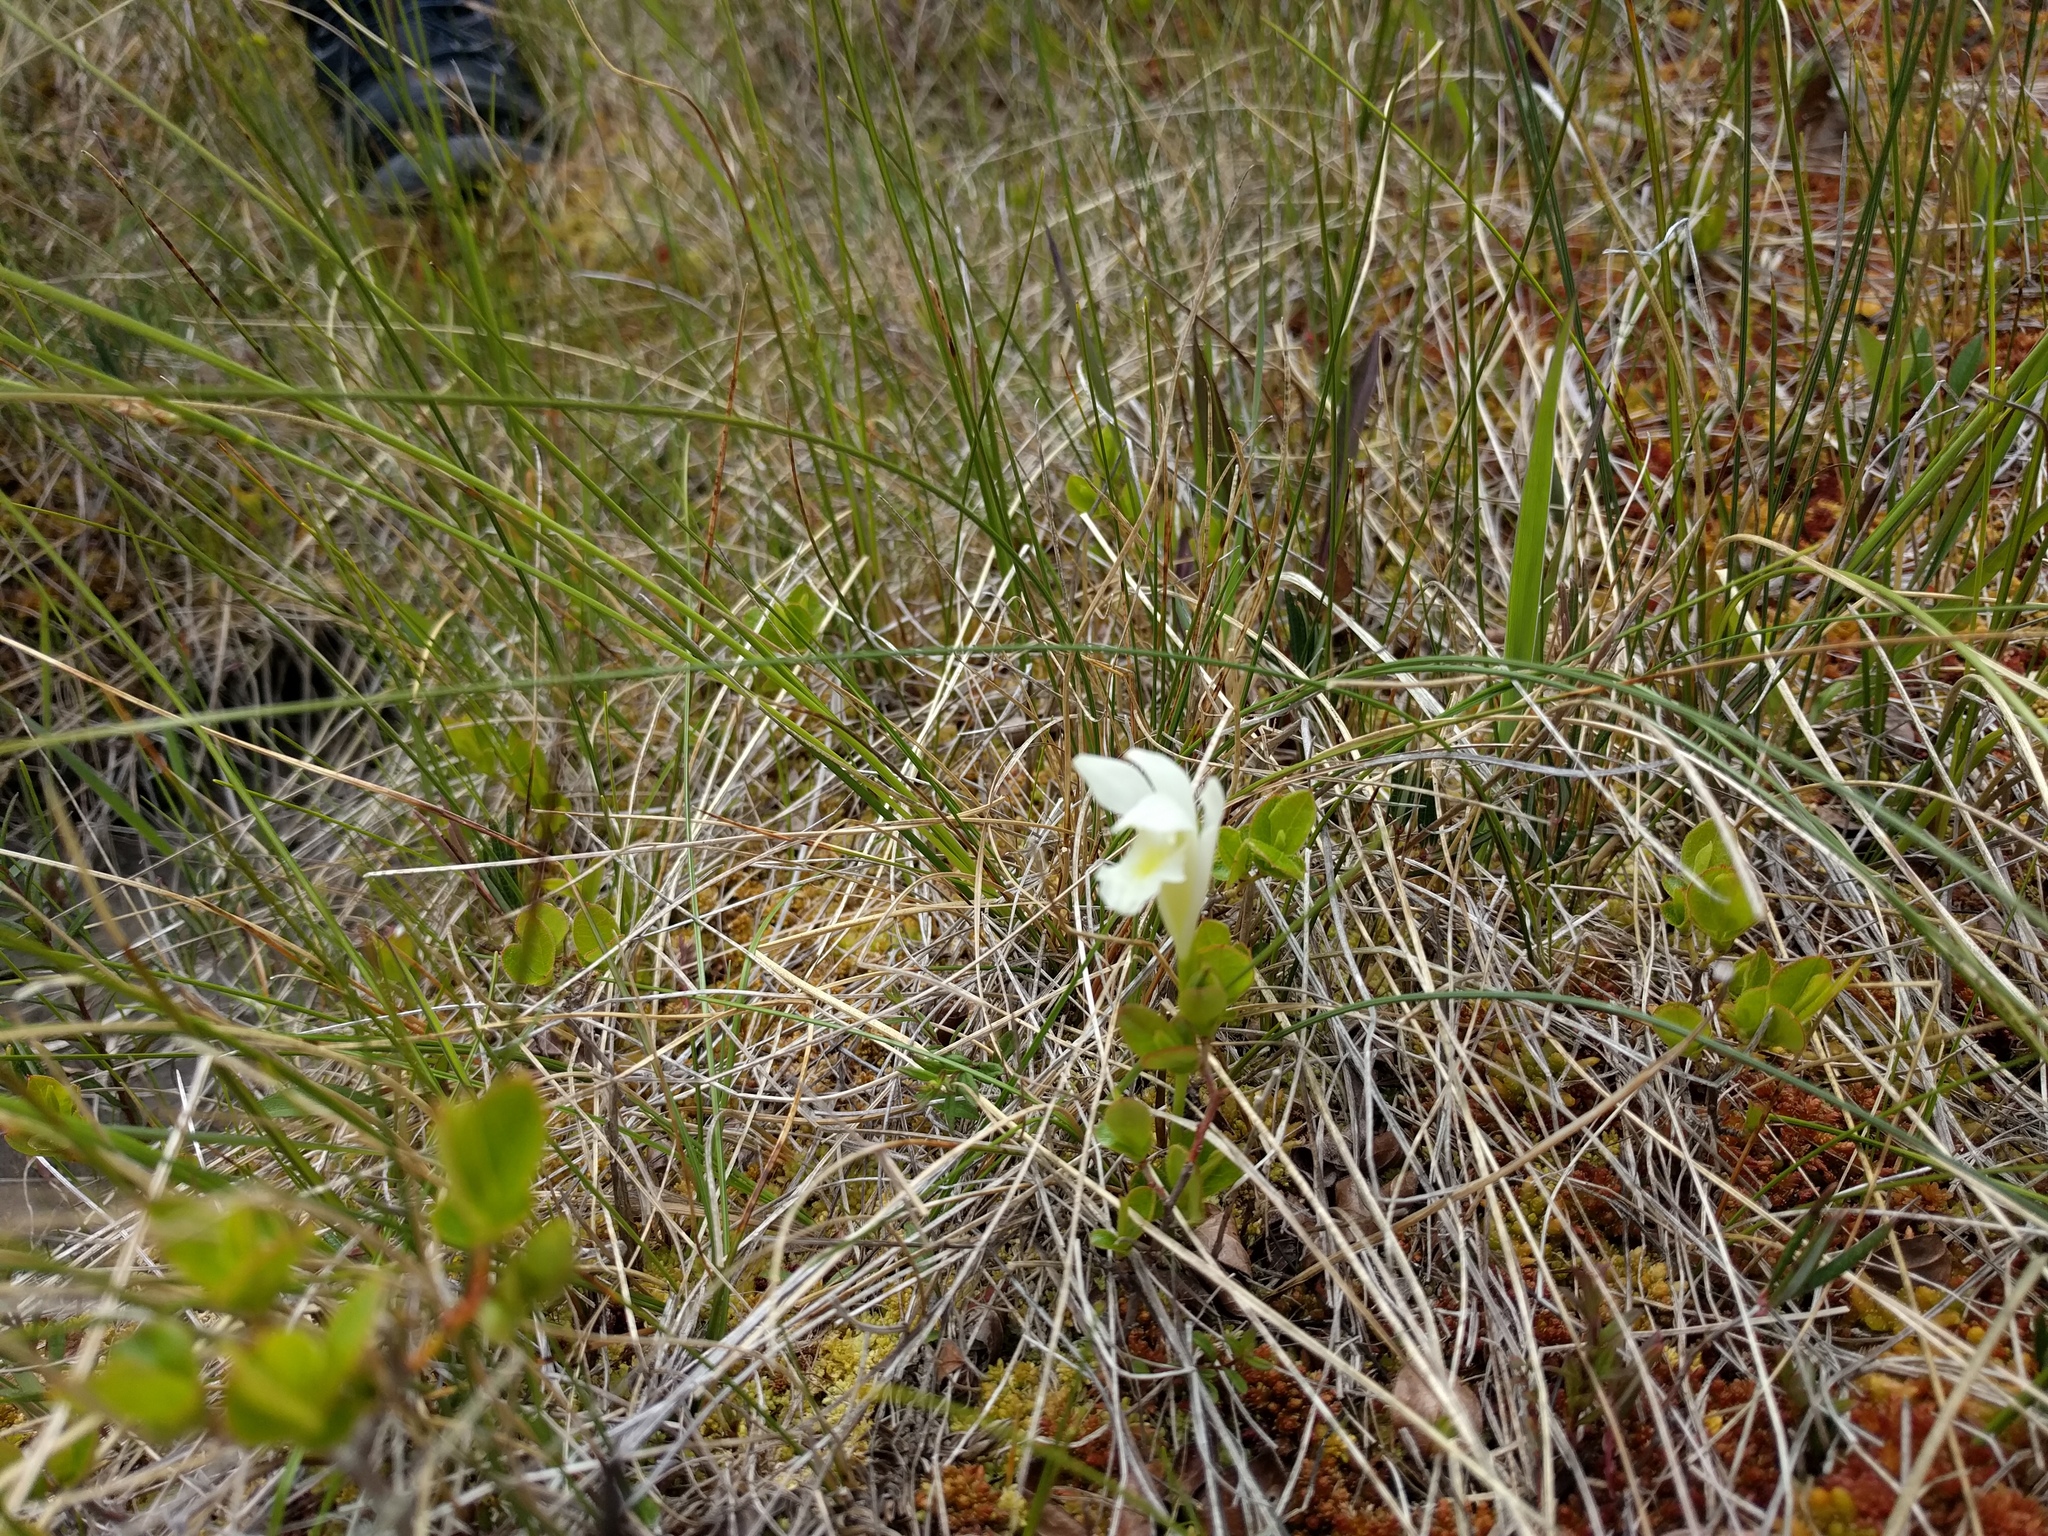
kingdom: Plantae
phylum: Tracheophyta
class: Liliopsida
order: Asparagales
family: Orchidaceae
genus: Arethusa
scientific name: Arethusa bulbosa
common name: Arethusa
